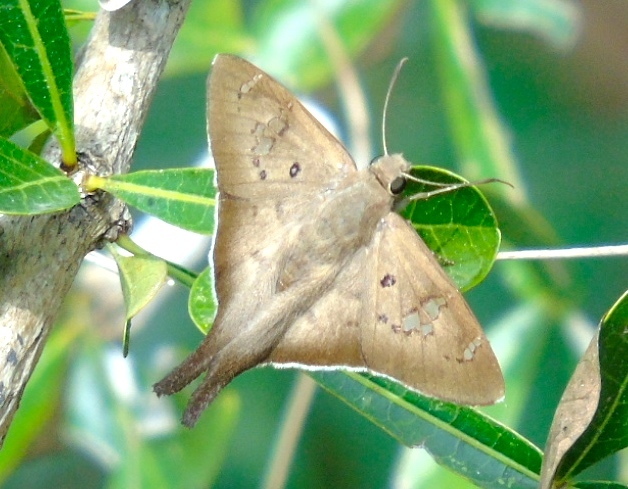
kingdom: Animalia
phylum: Arthropoda
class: Insecta
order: Lepidoptera
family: Hesperiidae
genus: Ectomis
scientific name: Ectomis
